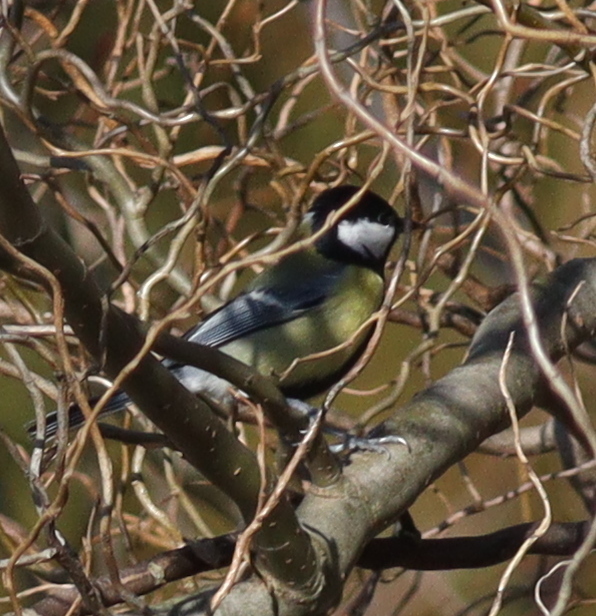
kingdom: Animalia
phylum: Chordata
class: Aves
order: Passeriformes
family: Paridae
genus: Parus
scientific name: Parus major
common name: Great tit
